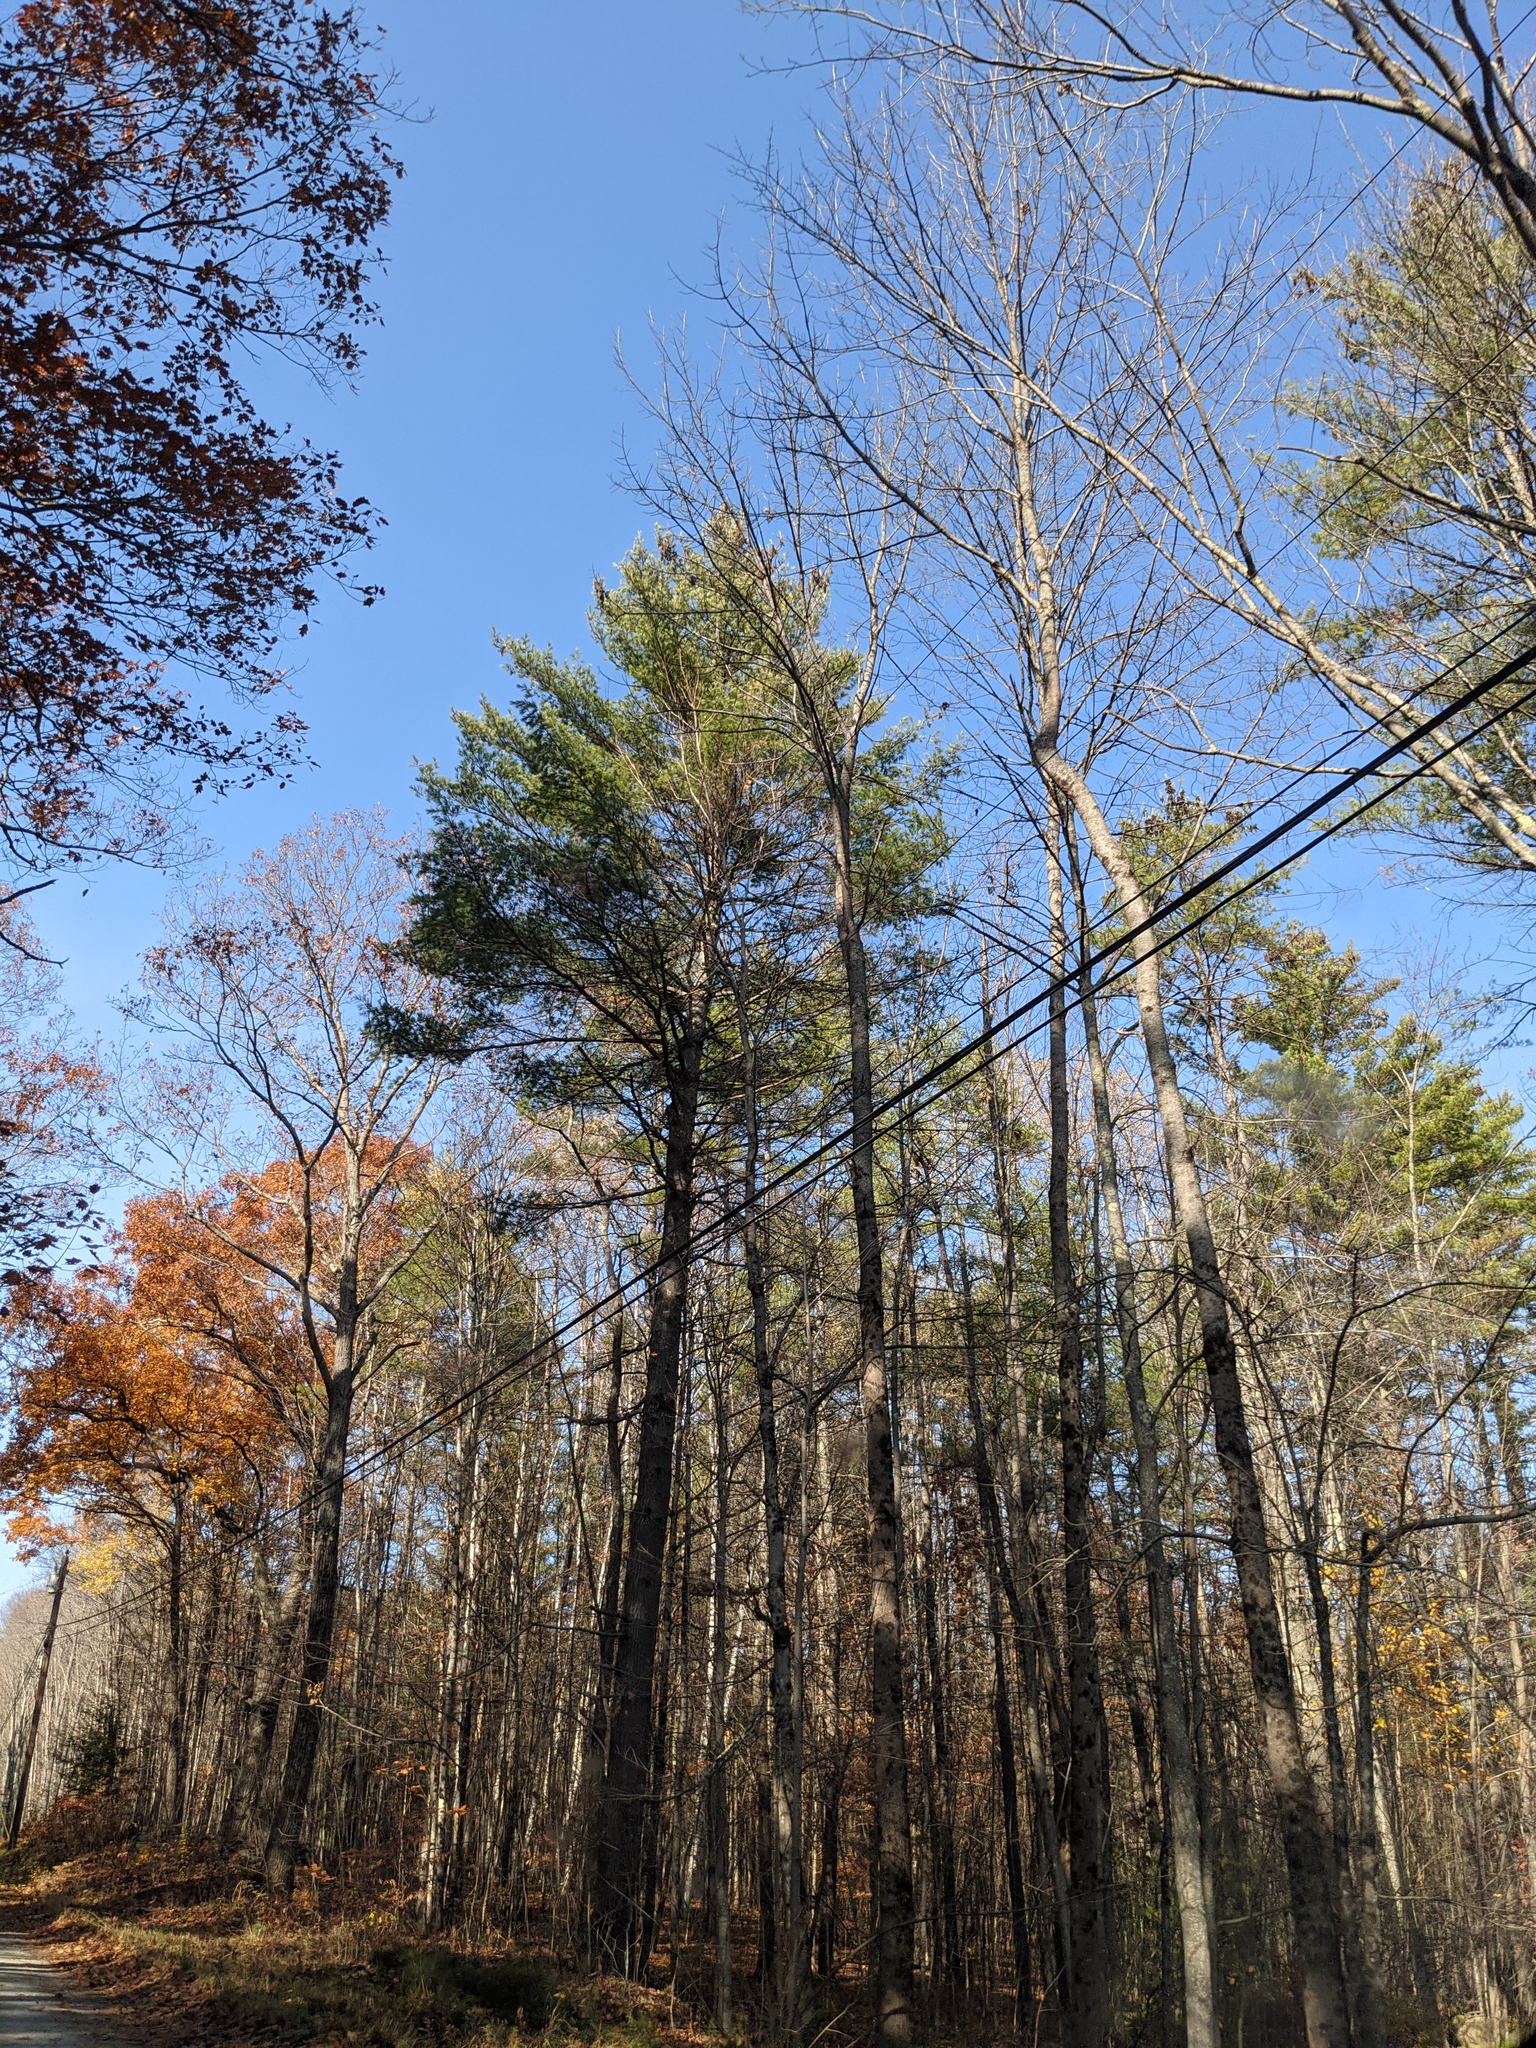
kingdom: Plantae
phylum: Tracheophyta
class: Pinopsida
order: Pinales
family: Pinaceae
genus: Pinus
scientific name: Pinus strobus
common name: Weymouth pine
